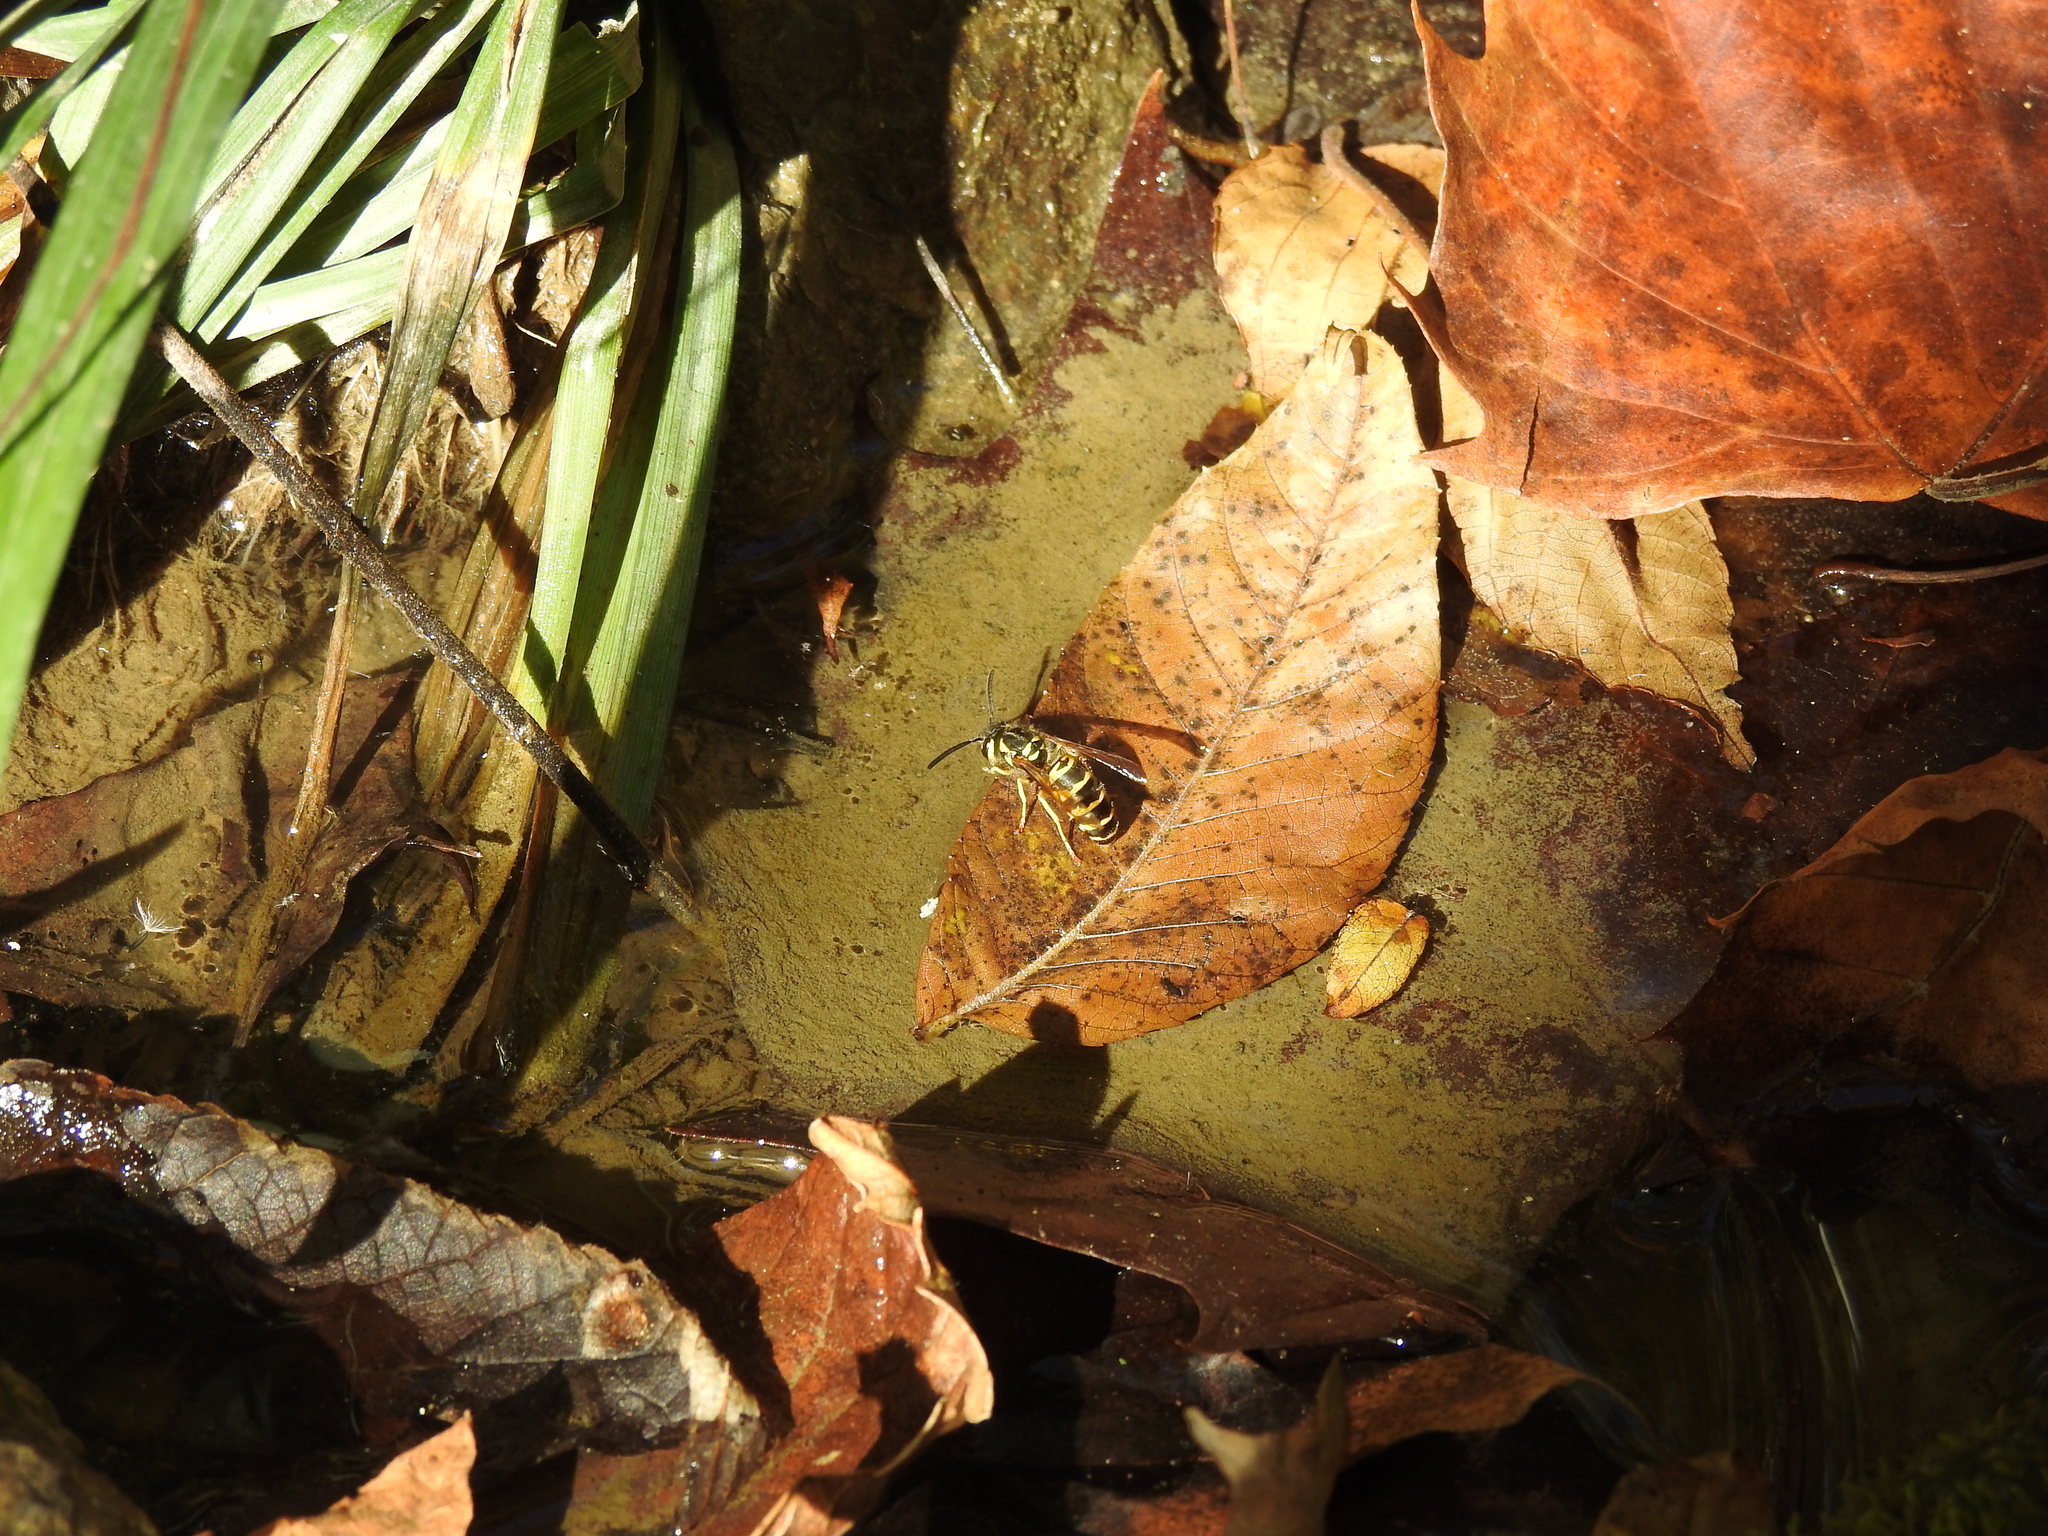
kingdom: Animalia
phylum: Arthropoda
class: Insecta
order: Hymenoptera
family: Vespidae
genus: Vespula
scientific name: Vespula maculifrons
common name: Eastern yellowjacket
